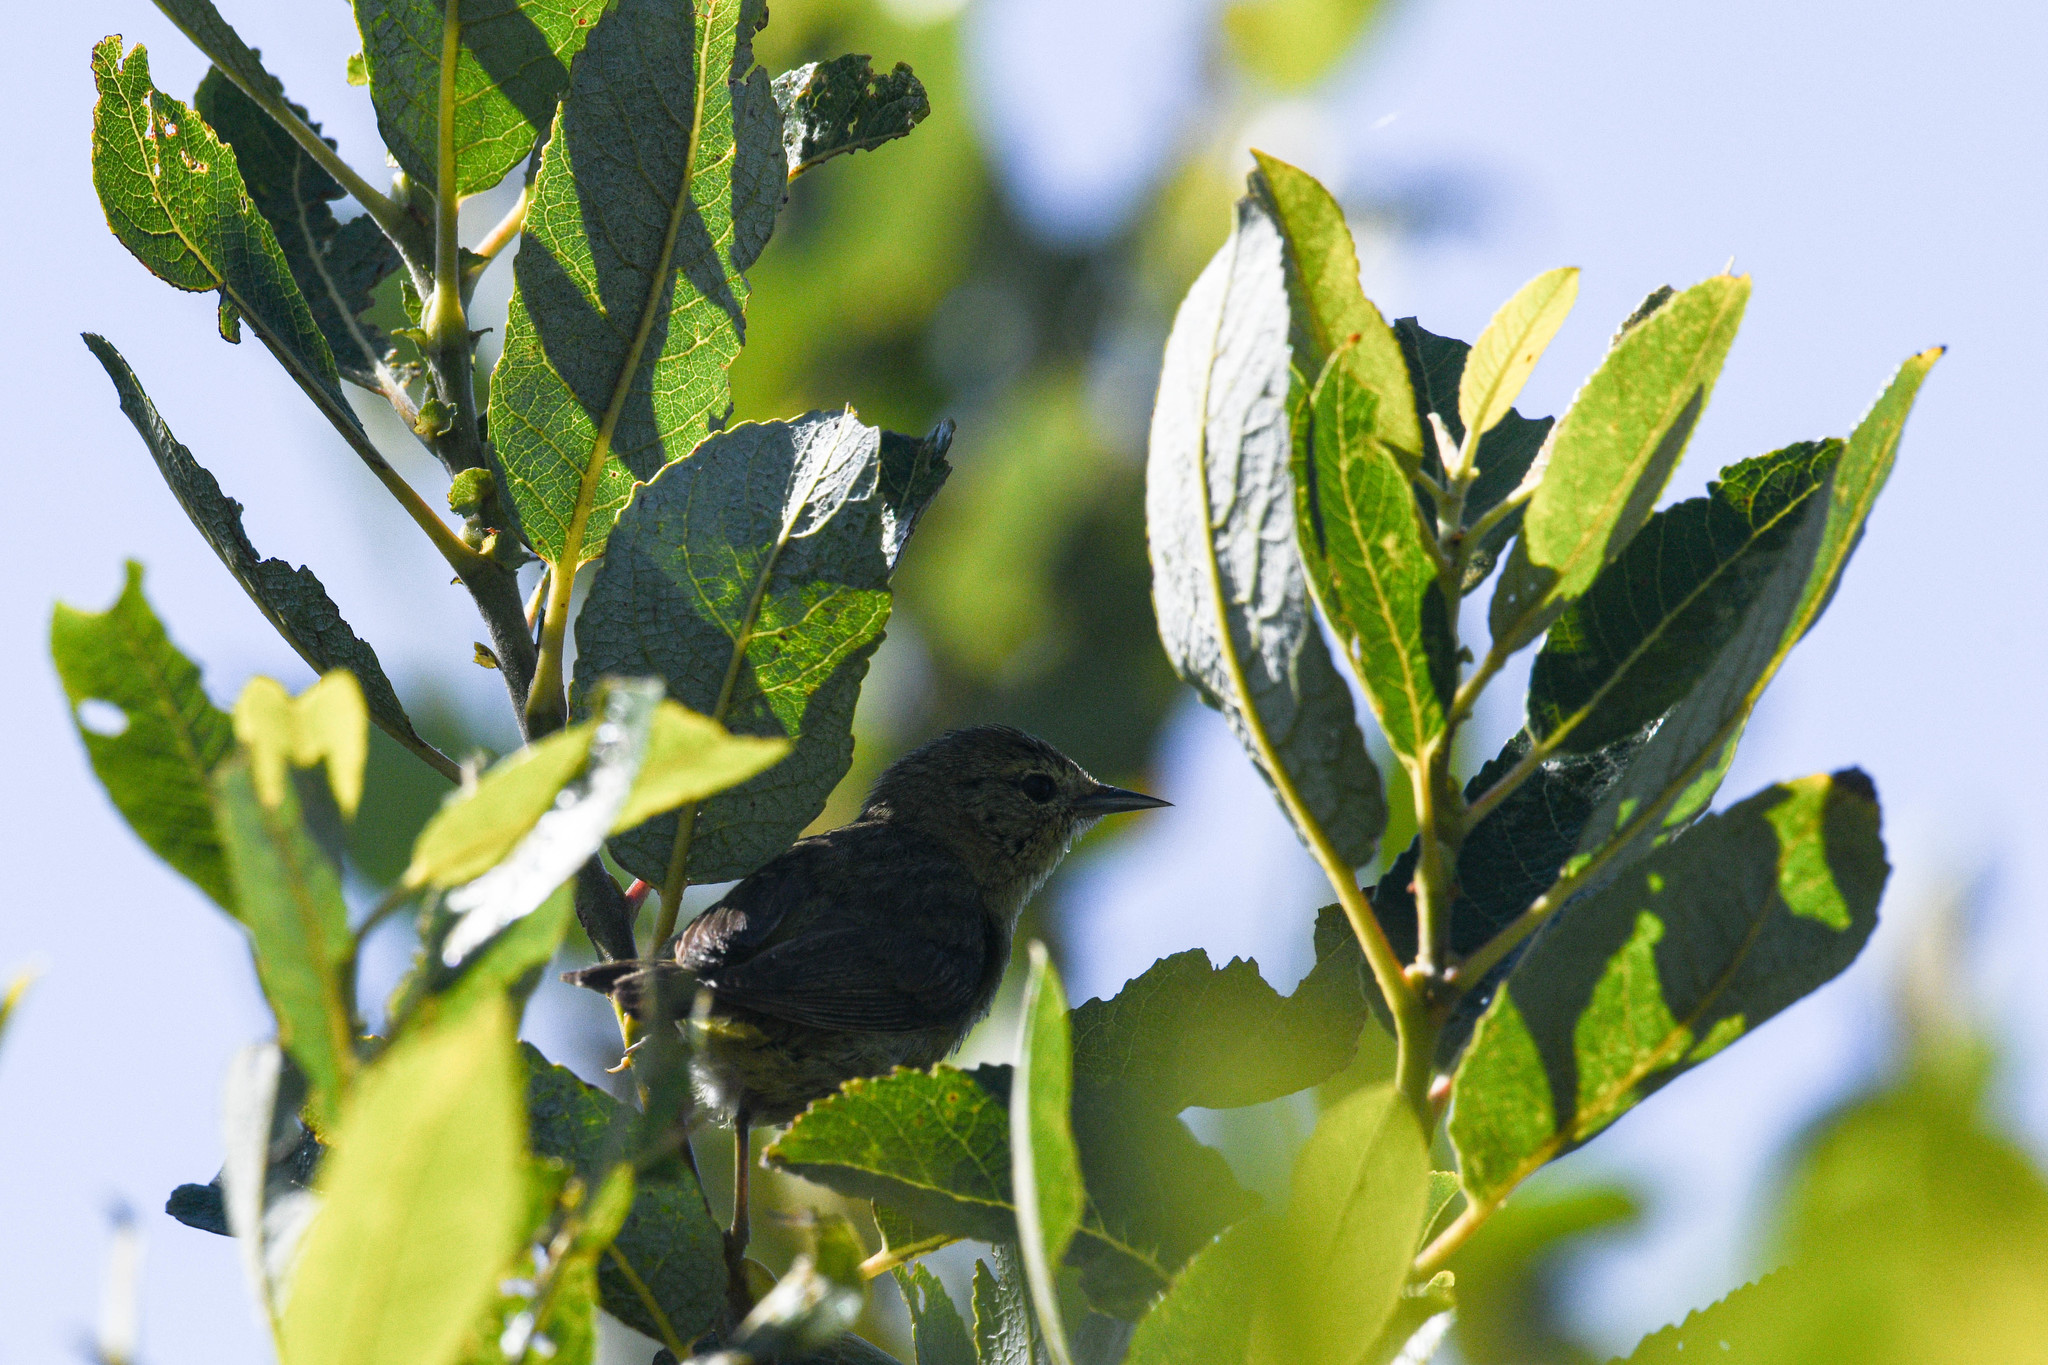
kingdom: Animalia
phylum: Chordata
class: Aves
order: Passeriformes
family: Parulidae
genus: Leiothlypis
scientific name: Leiothlypis celata
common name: Orange-crowned warbler
